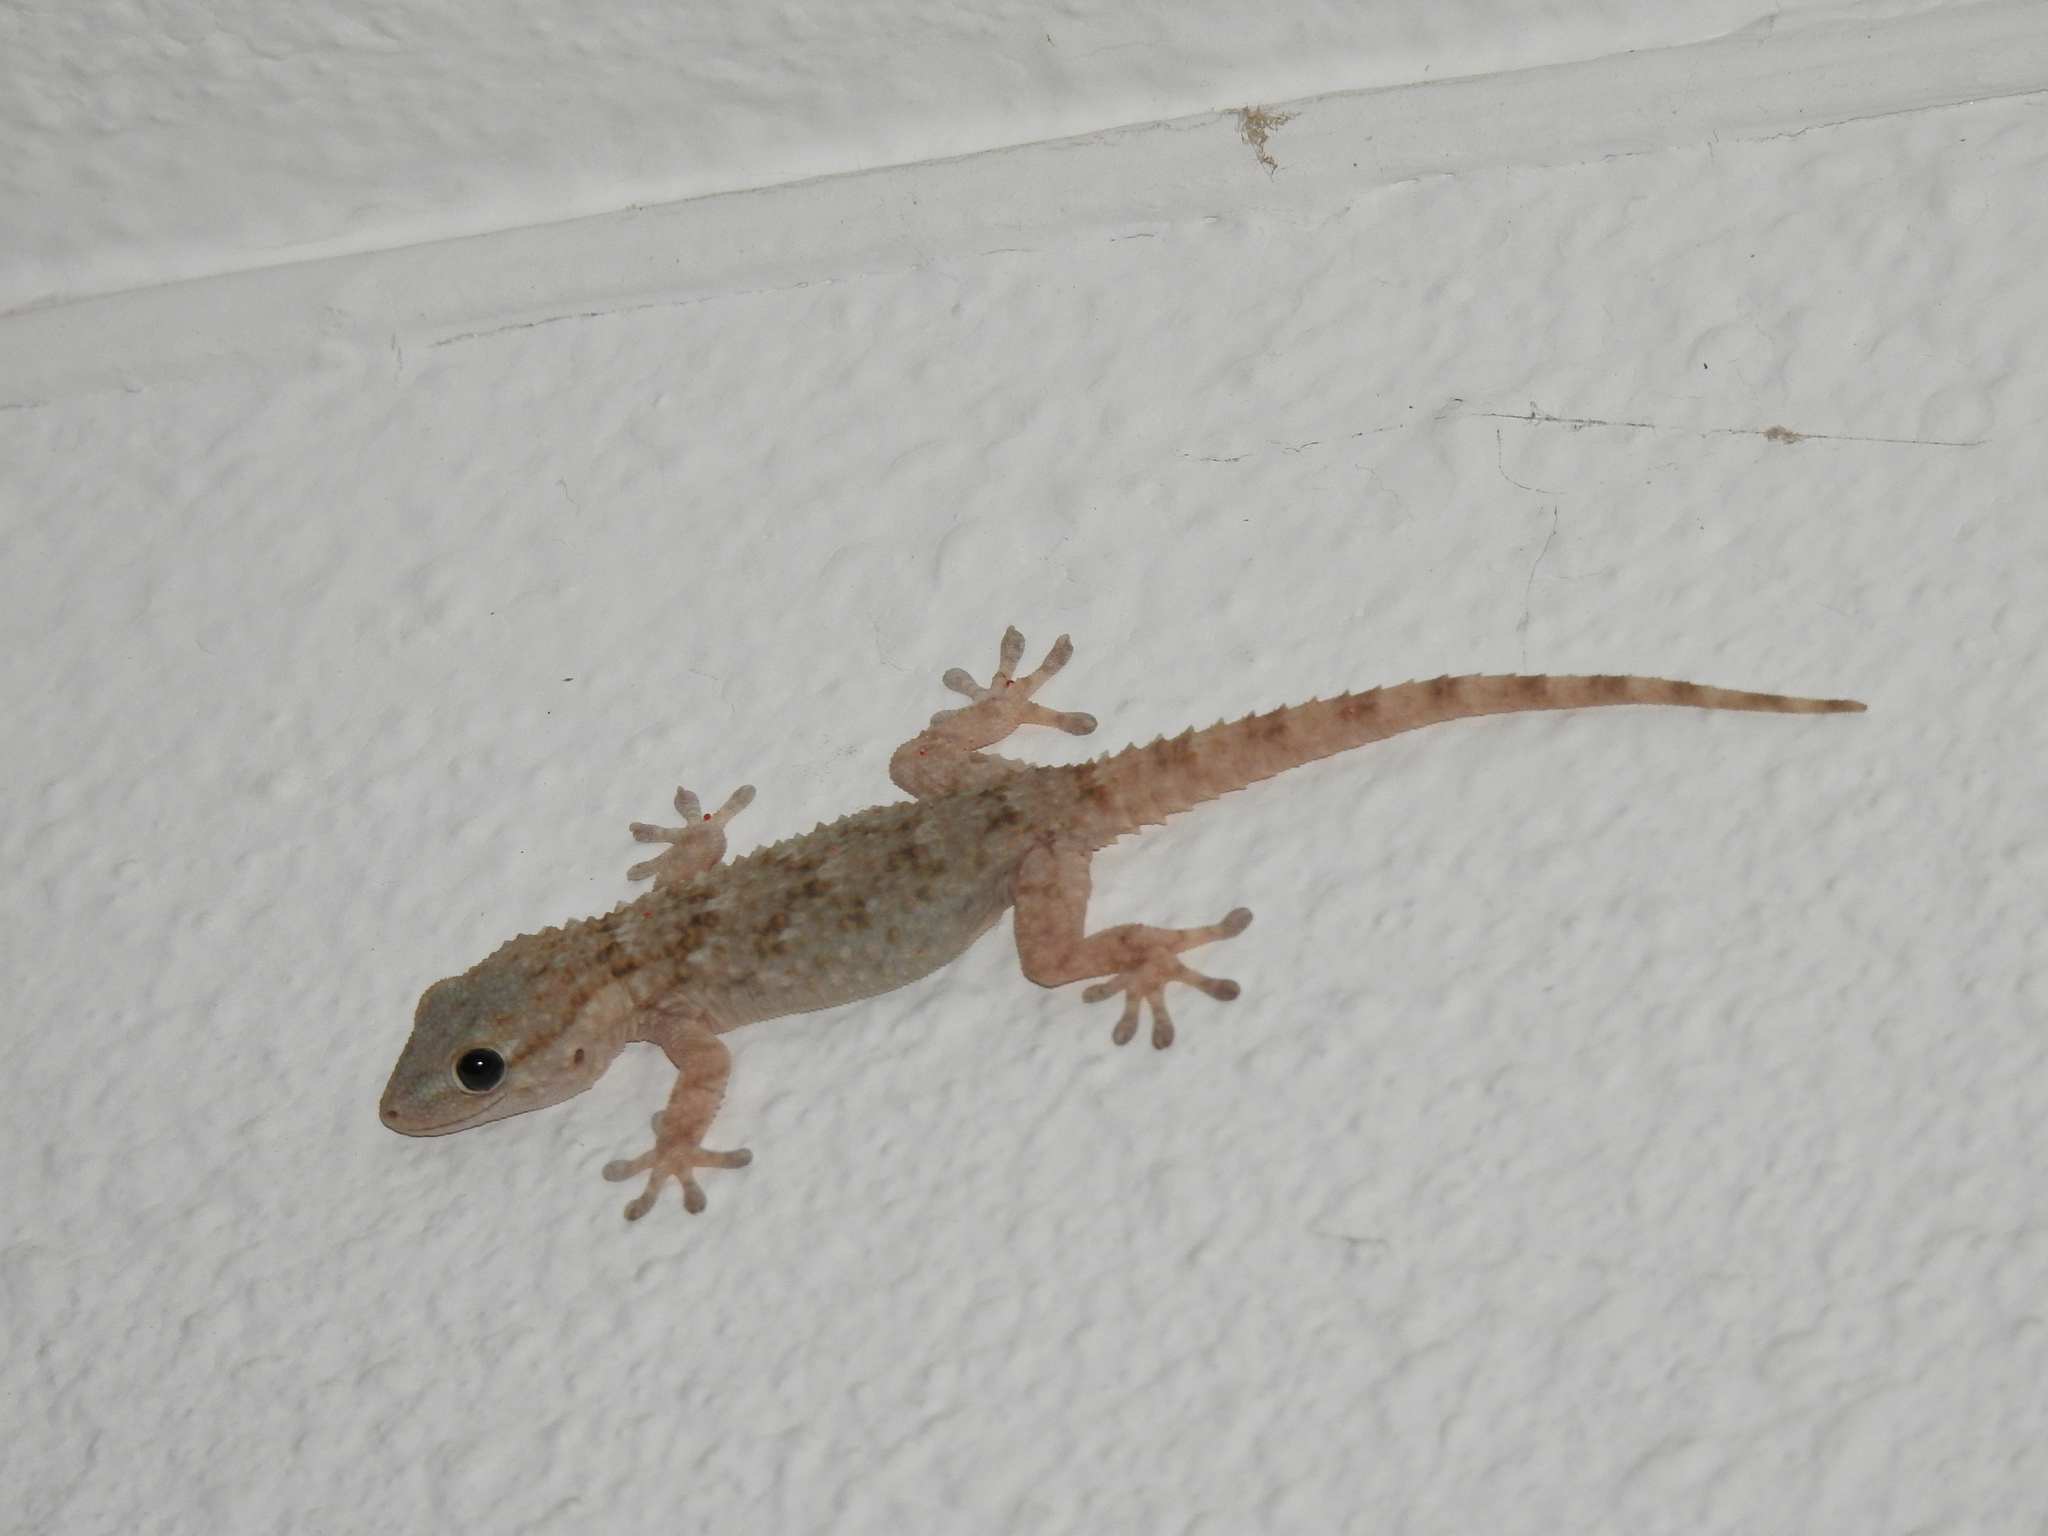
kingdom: Animalia
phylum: Chordata
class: Squamata
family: Phyllodactylidae
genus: Tarentola
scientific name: Tarentola mauritanica
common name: Moorish gecko
